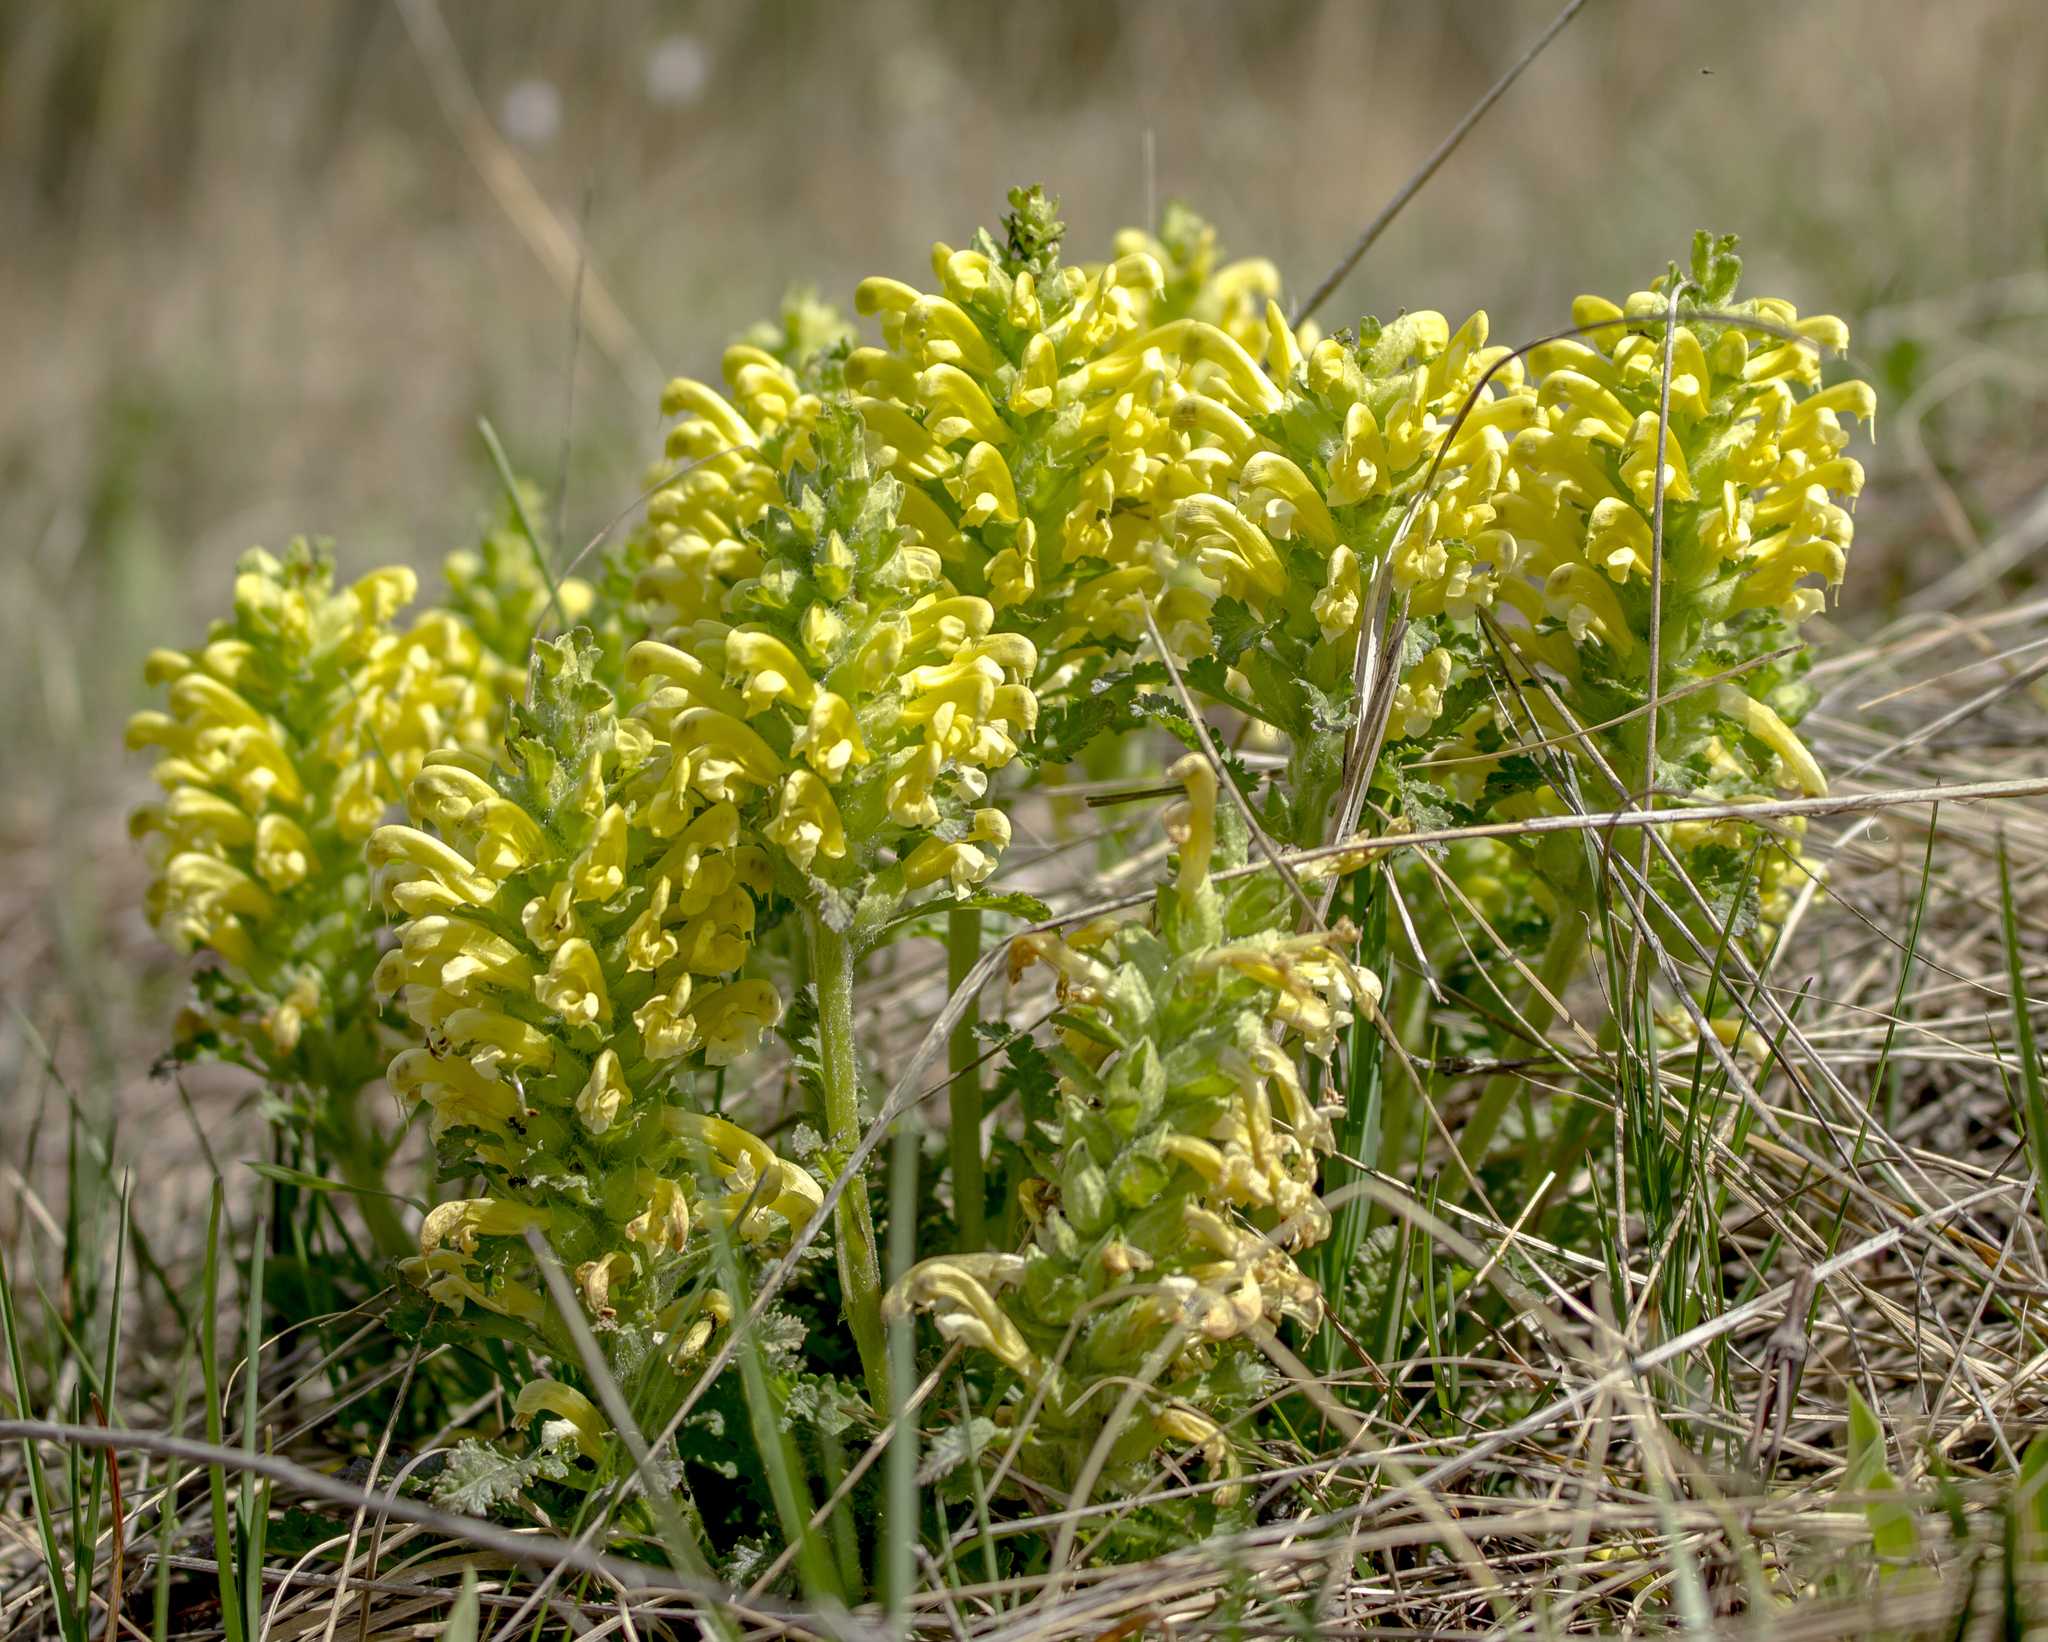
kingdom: Plantae
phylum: Tracheophyta
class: Magnoliopsida
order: Lamiales
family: Orobanchaceae
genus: Pedicularis
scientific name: Pedicularis canadensis
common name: Early lousewort
